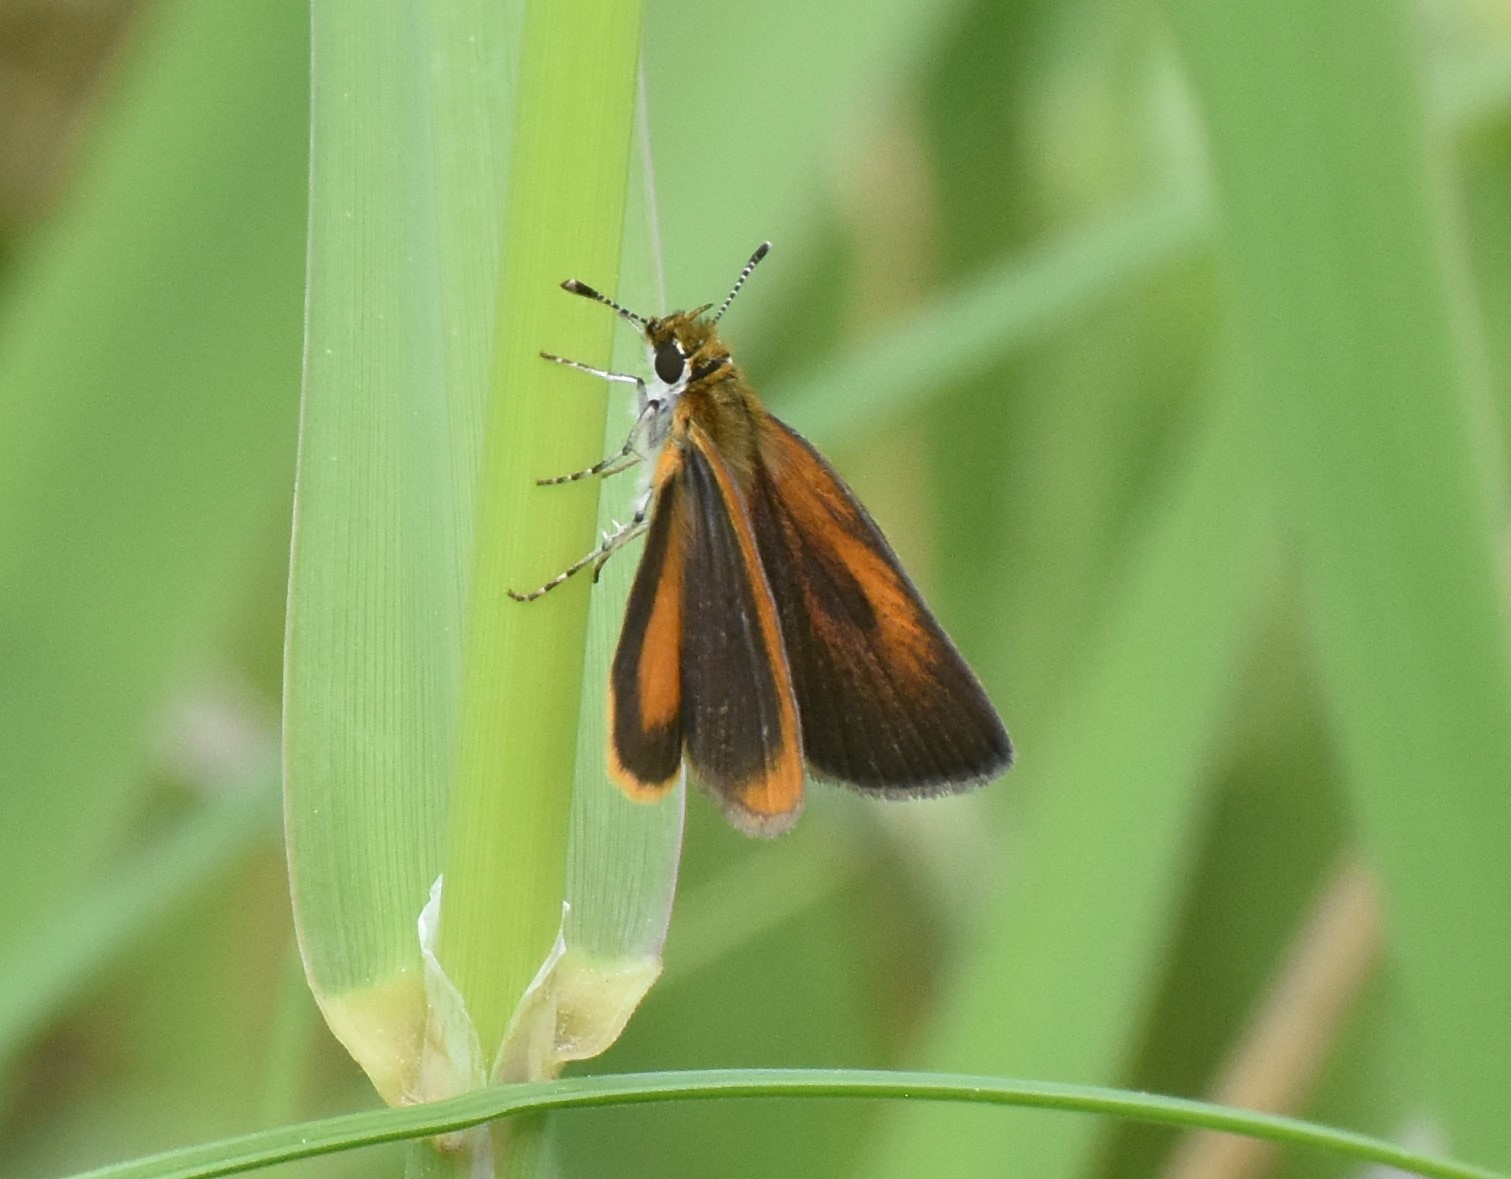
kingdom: Animalia
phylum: Arthropoda
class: Insecta
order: Lepidoptera
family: Hesperiidae
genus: Ancyloxypha
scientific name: Ancyloxypha numitor
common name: Least skipper
